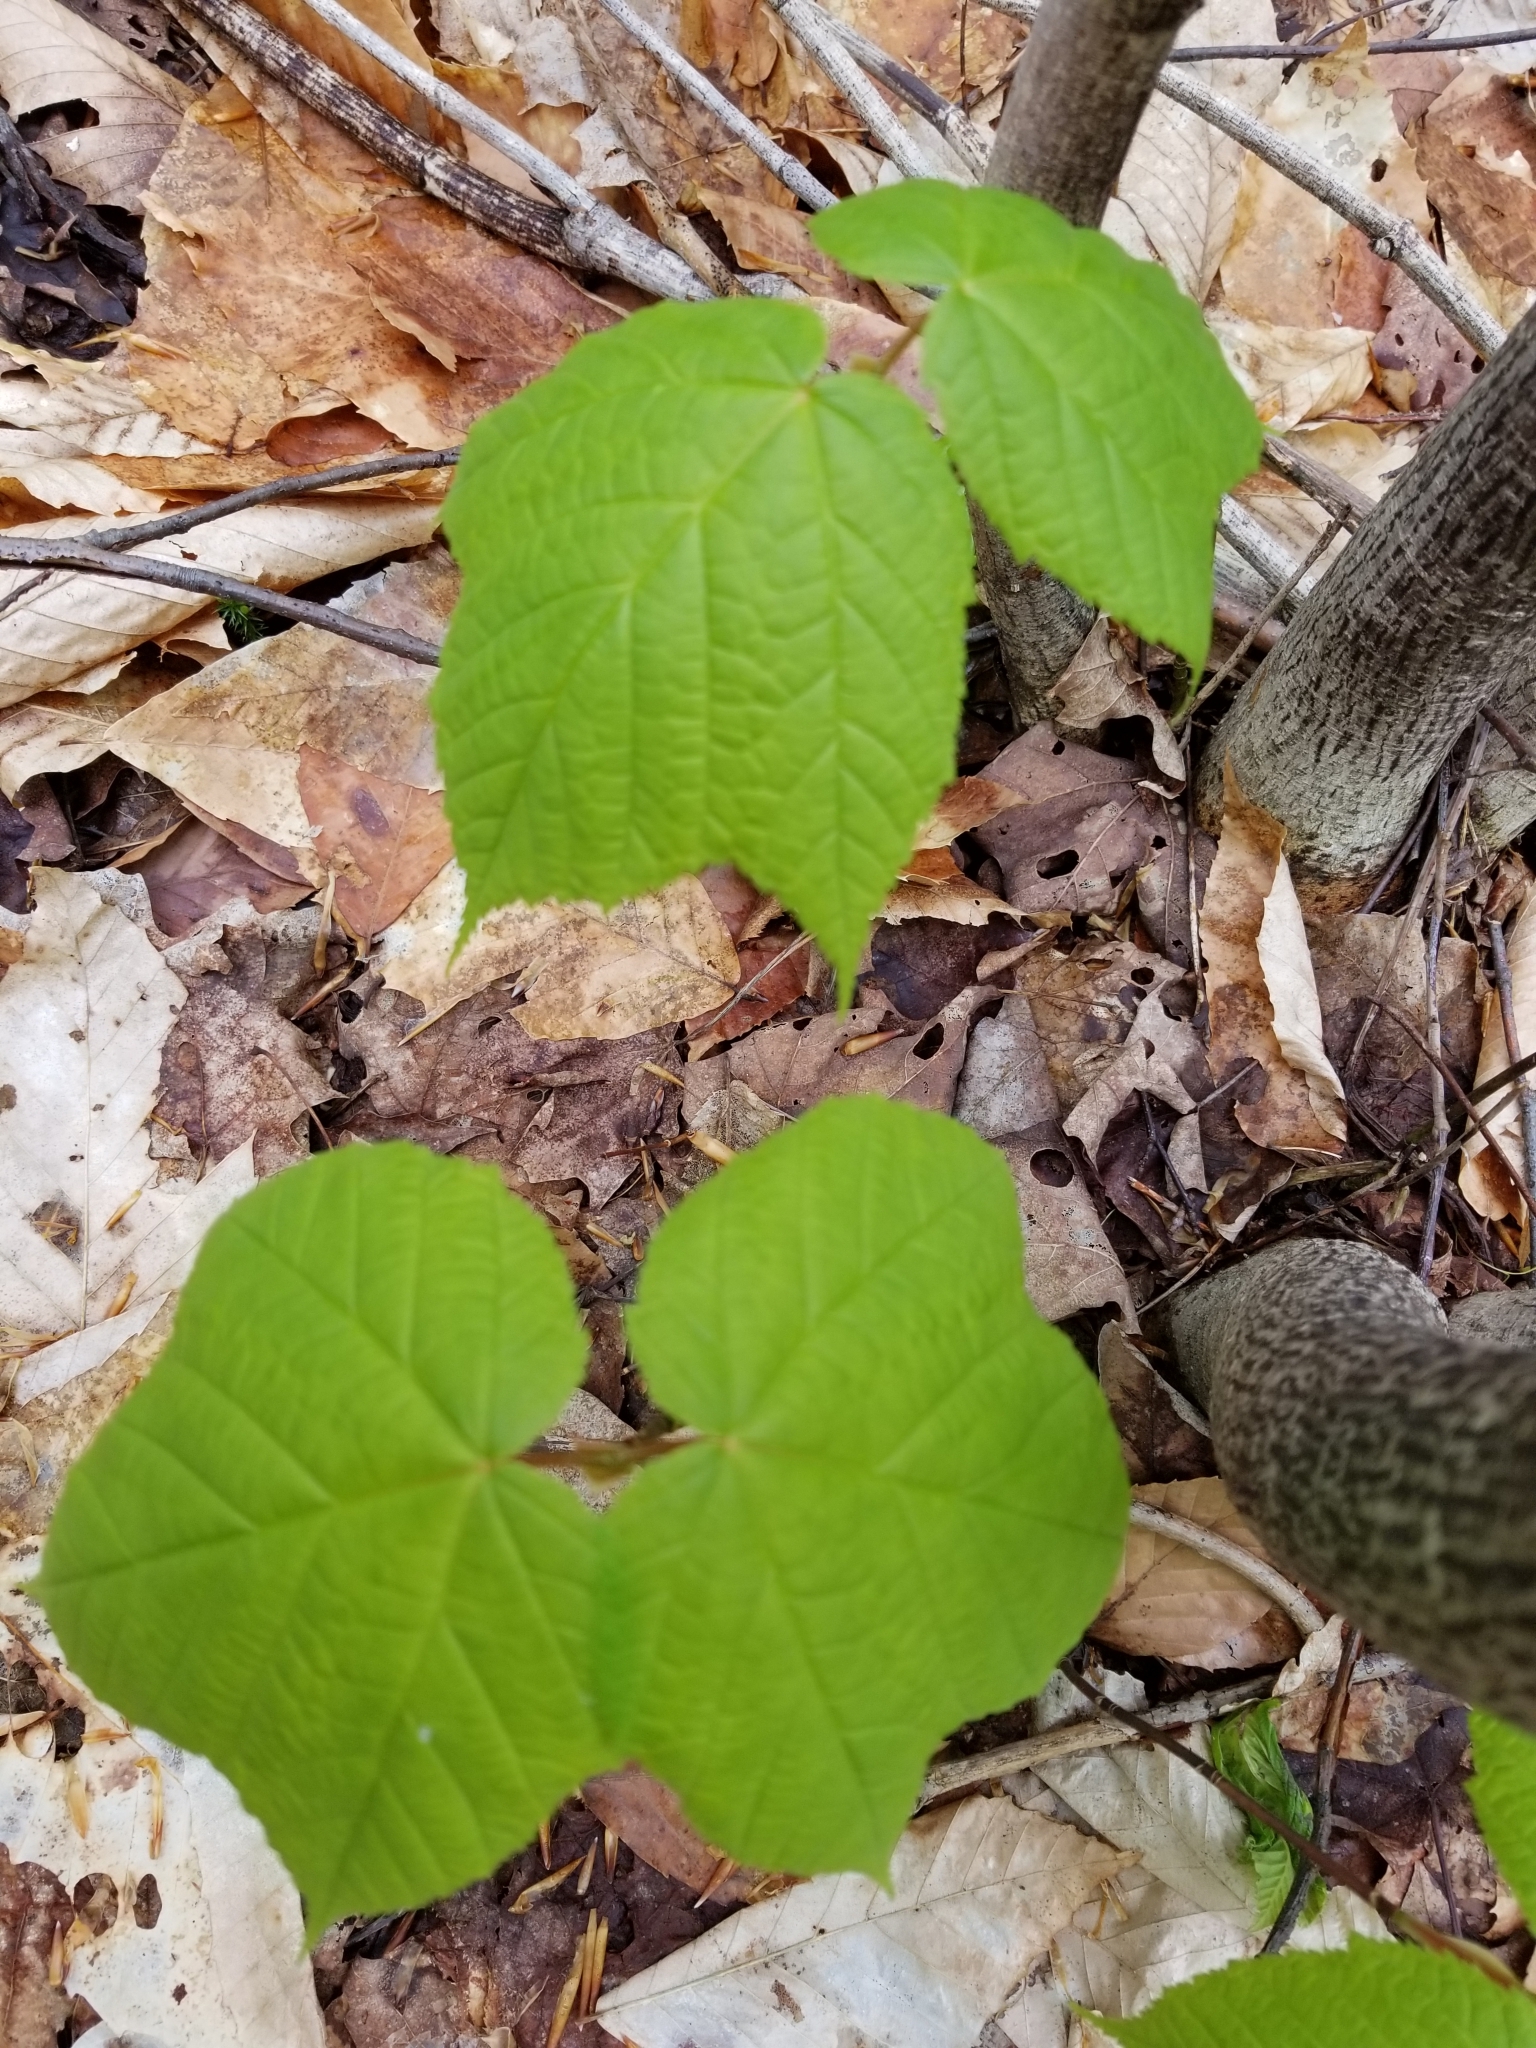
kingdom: Plantae
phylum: Tracheophyta
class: Magnoliopsida
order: Sapindales
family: Sapindaceae
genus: Acer
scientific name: Acer pensylvanicum
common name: Moosewood
